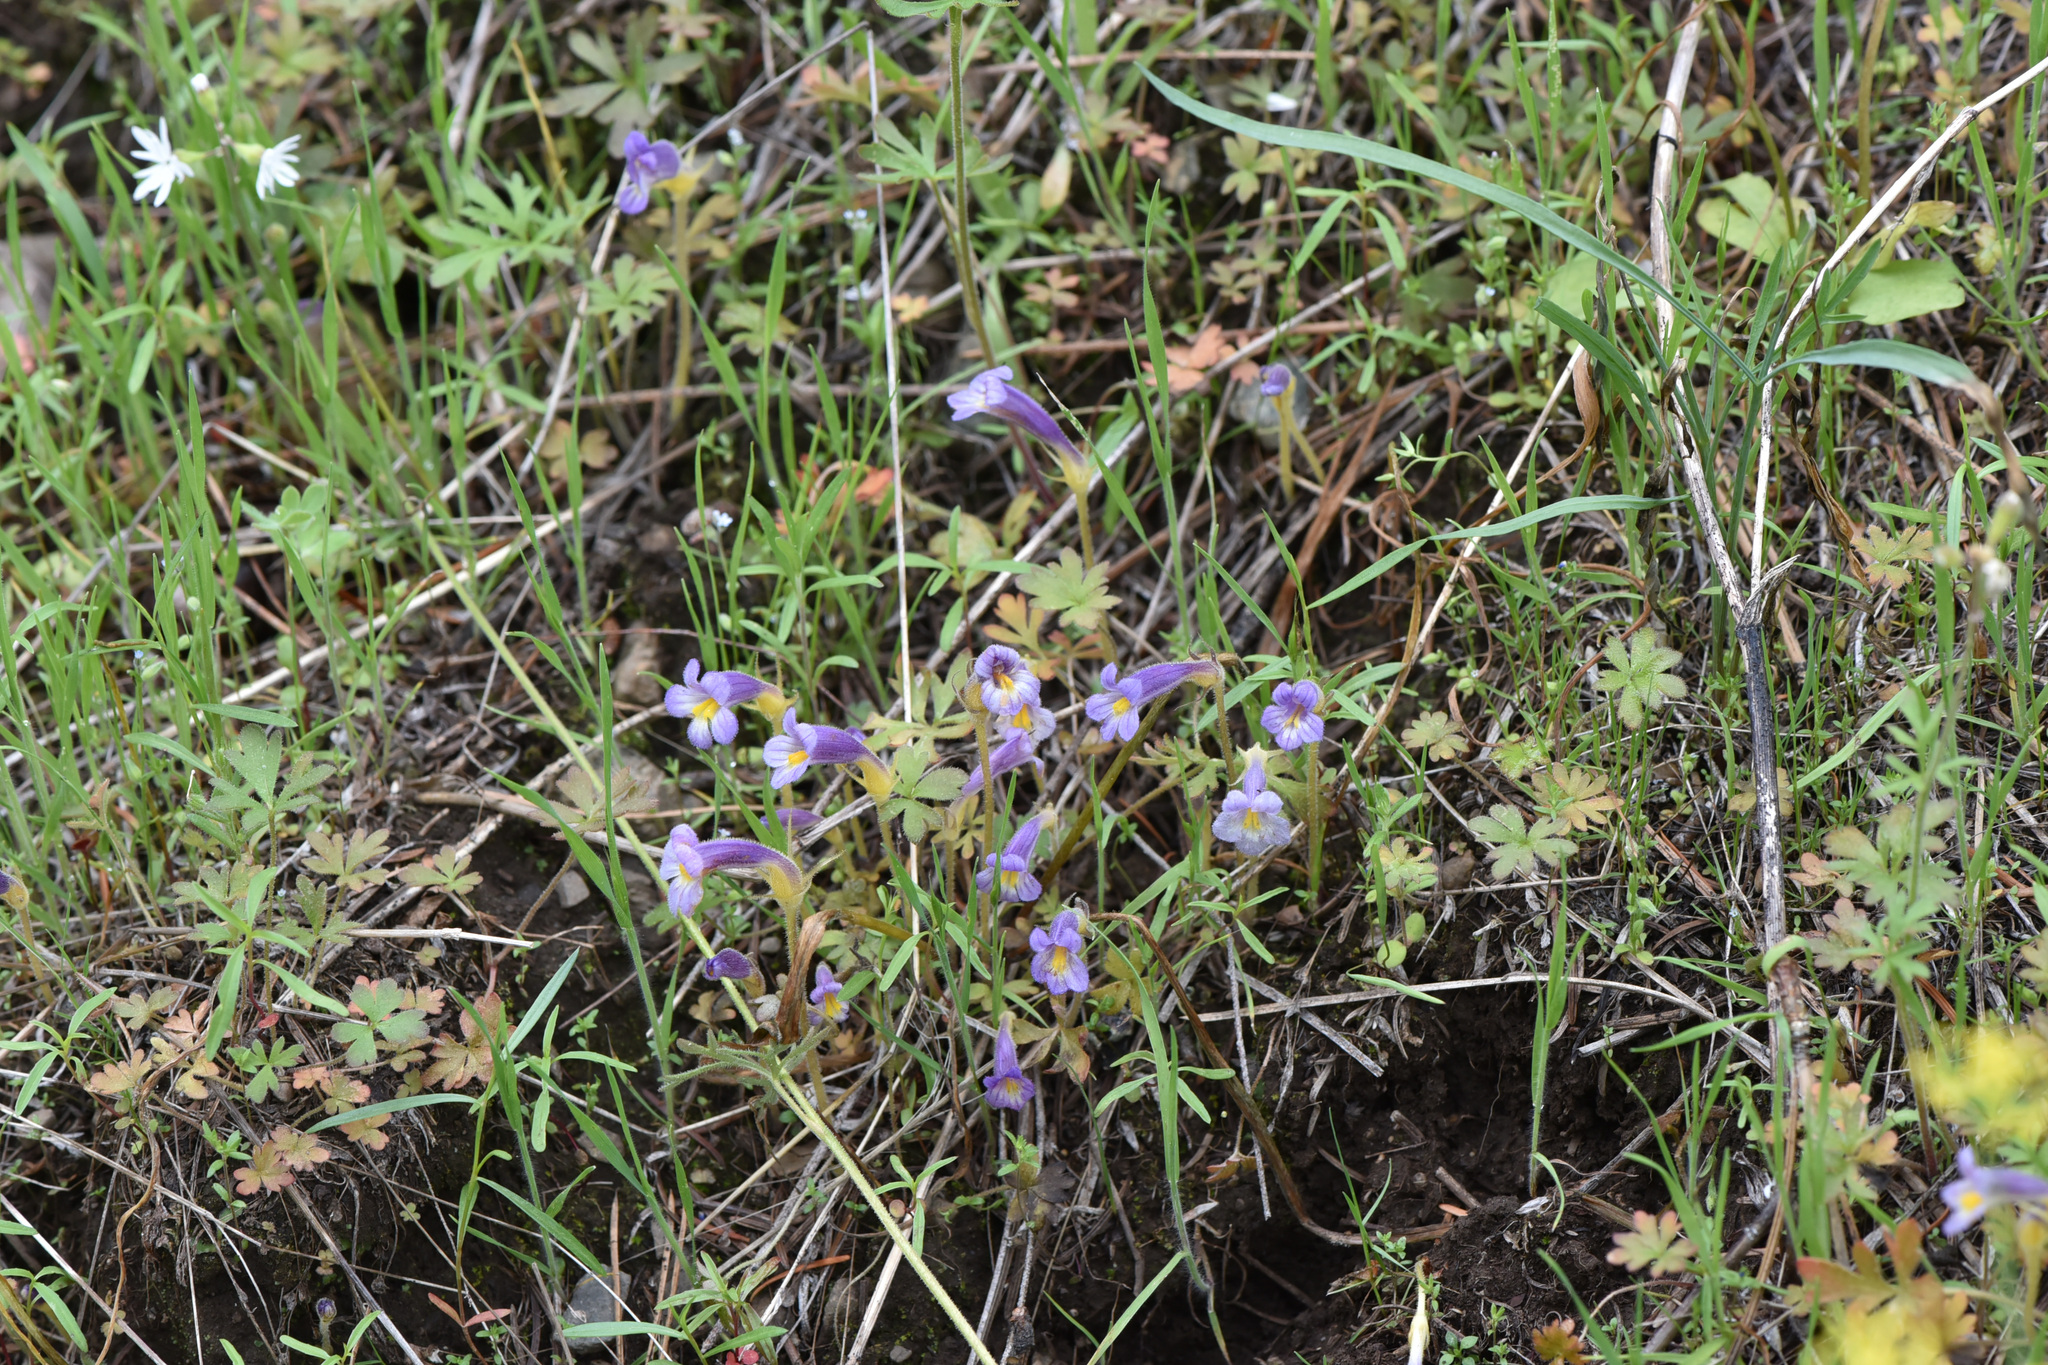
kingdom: Plantae
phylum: Tracheophyta
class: Magnoliopsida
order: Lamiales
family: Orobanchaceae
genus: Aphyllon
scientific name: Aphyllon uniflorum
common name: One-flowered broomrape
